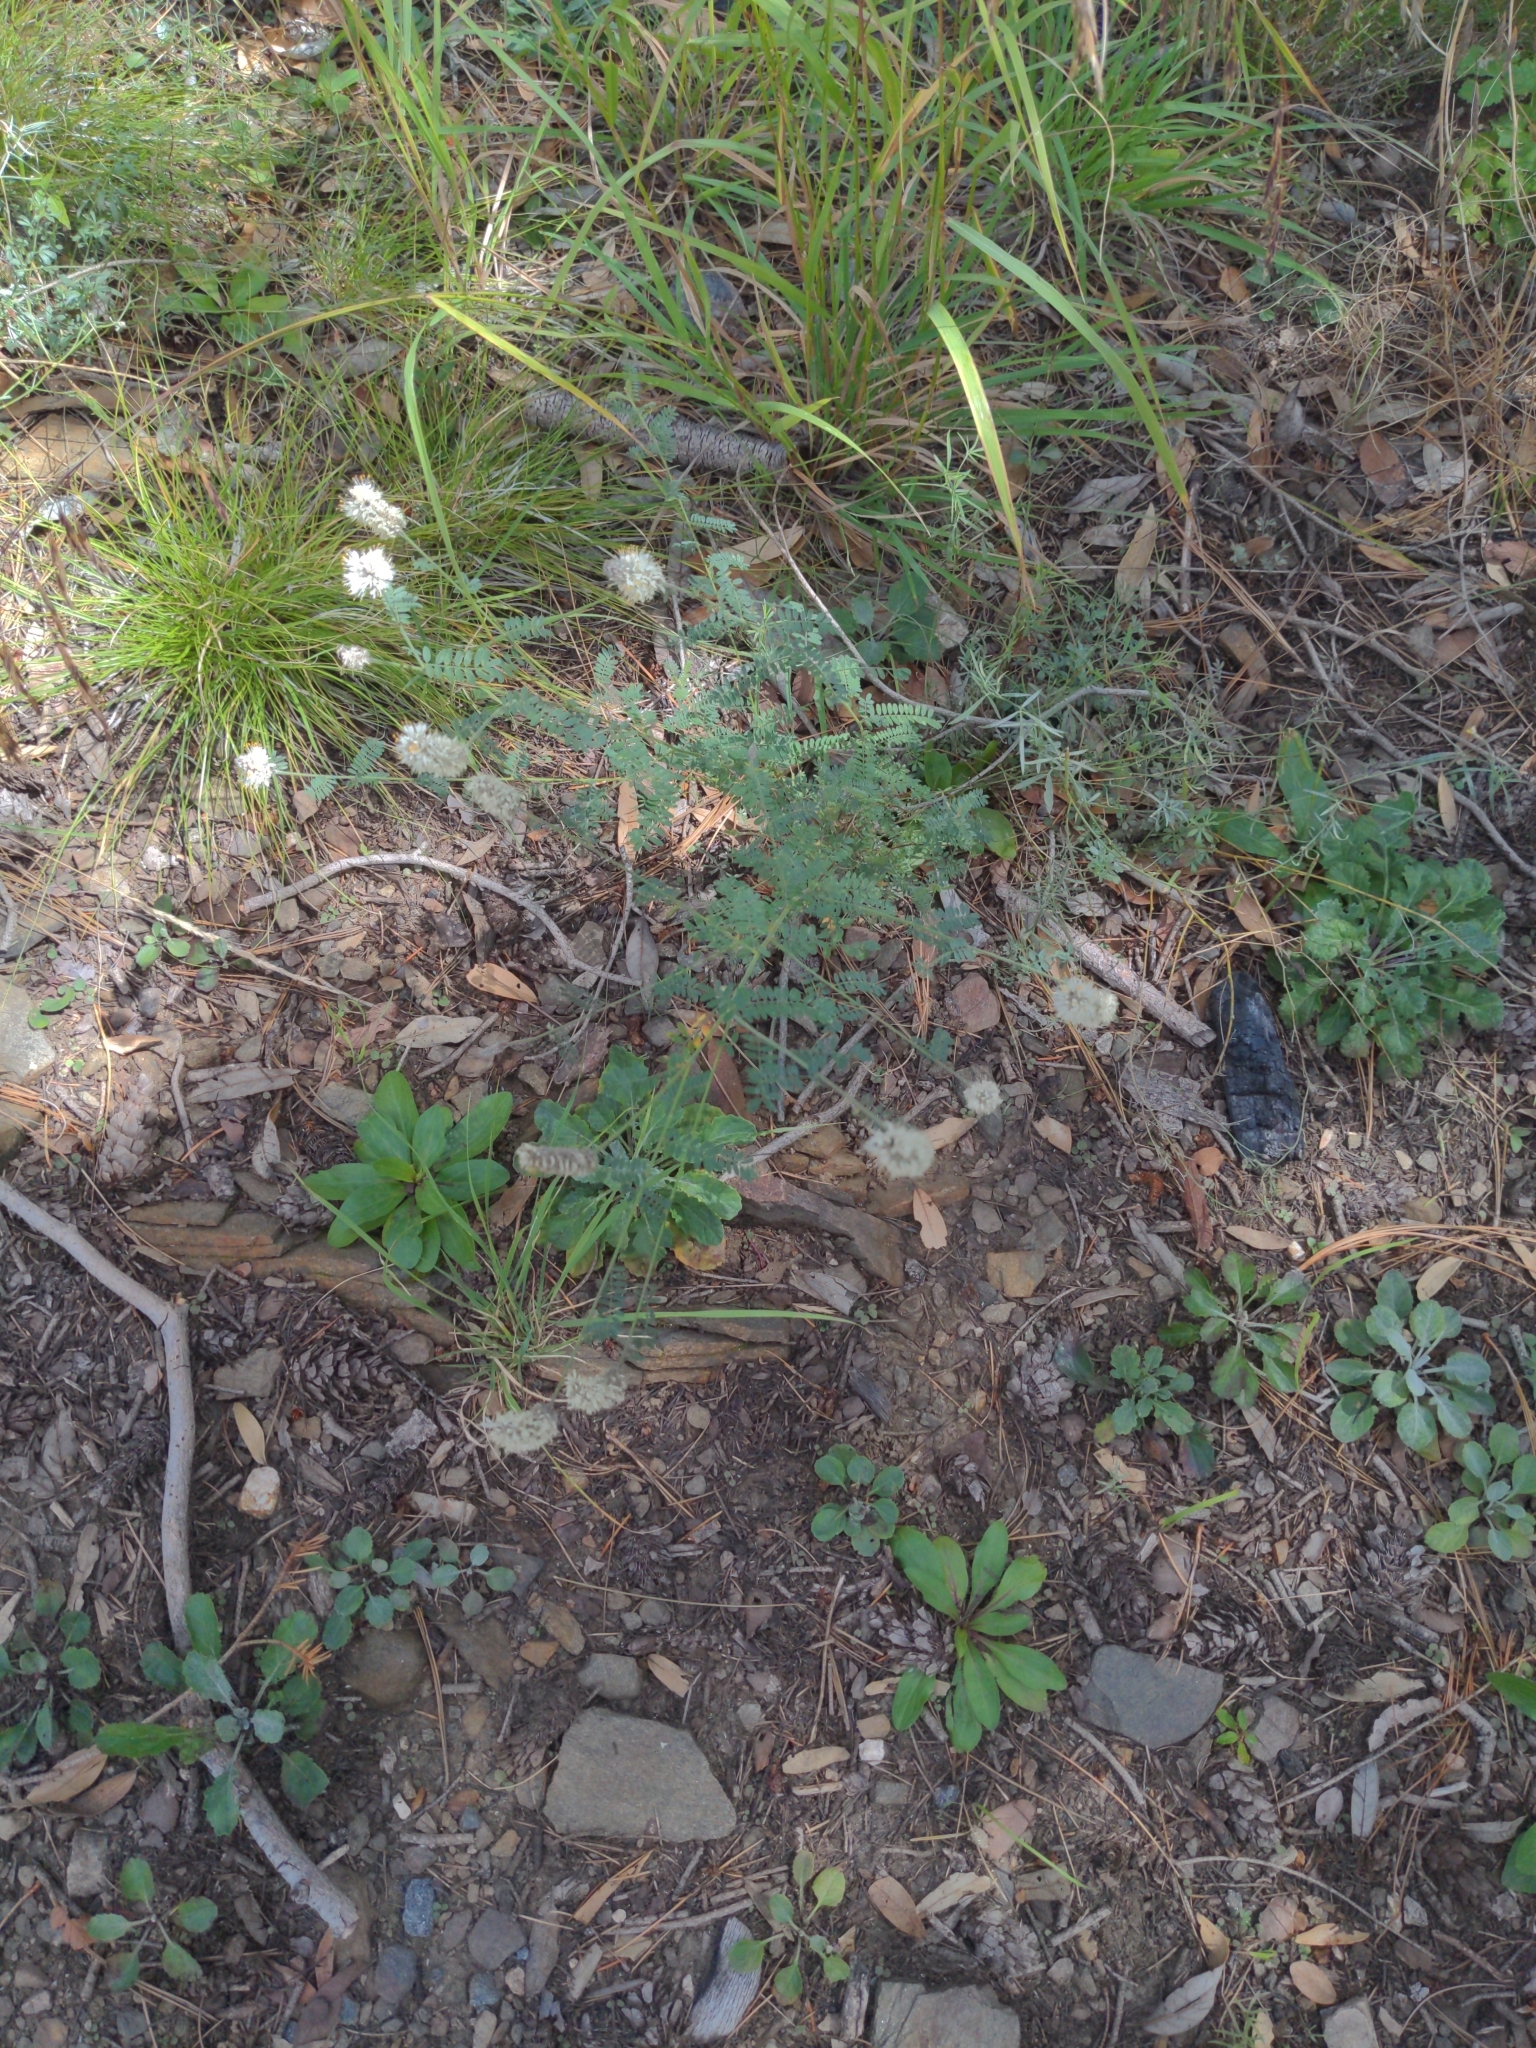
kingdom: Plantae
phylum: Tracheophyta
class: Magnoliopsida
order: Fabales
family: Fabaceae
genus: Dalea
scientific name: Dalea albiflora
